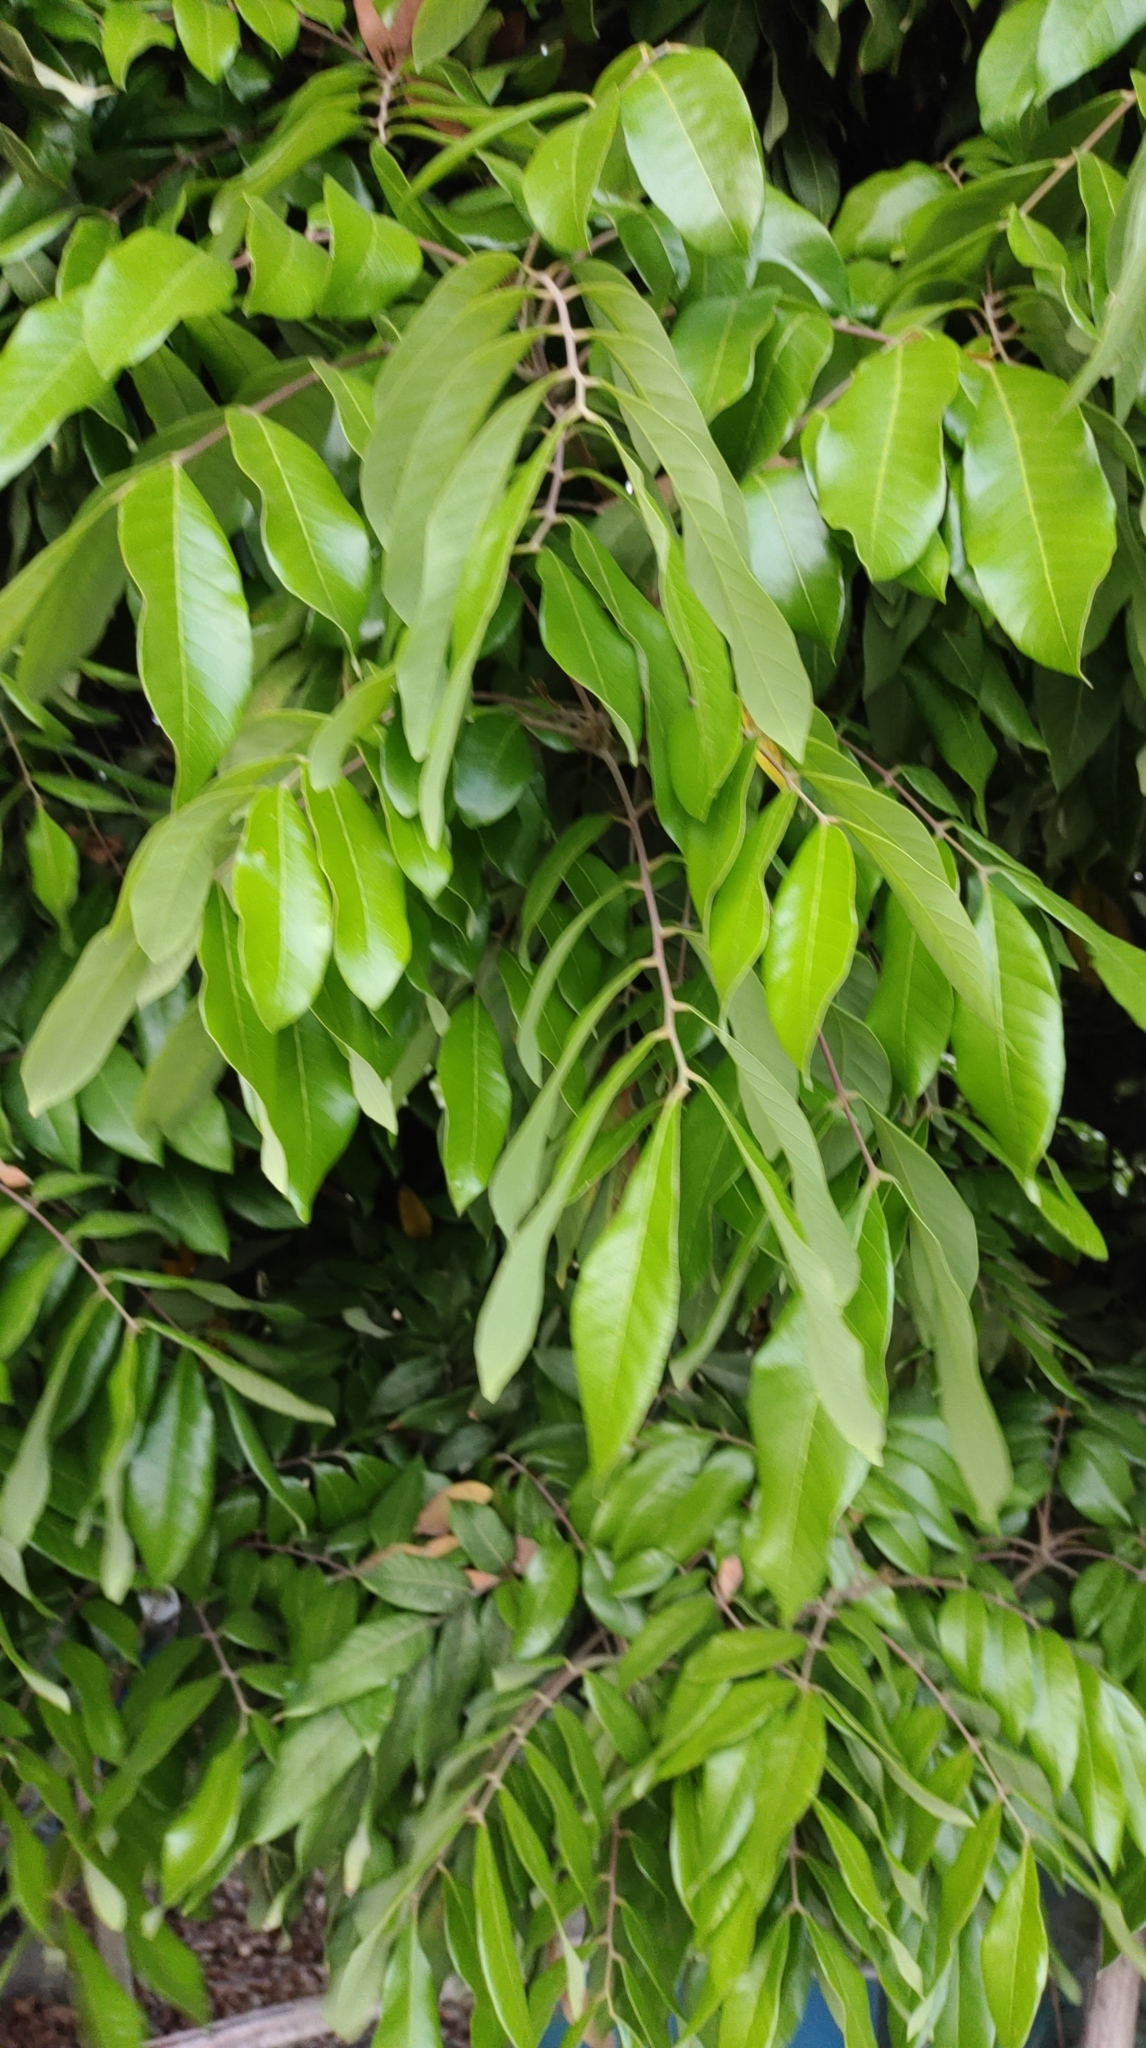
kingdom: Plantae
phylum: Tracheophyta
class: Magnoliopsida
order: Sapindales
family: Sapindaceae
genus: Dimocarpus
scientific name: Dimocarpus longan
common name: Longan
